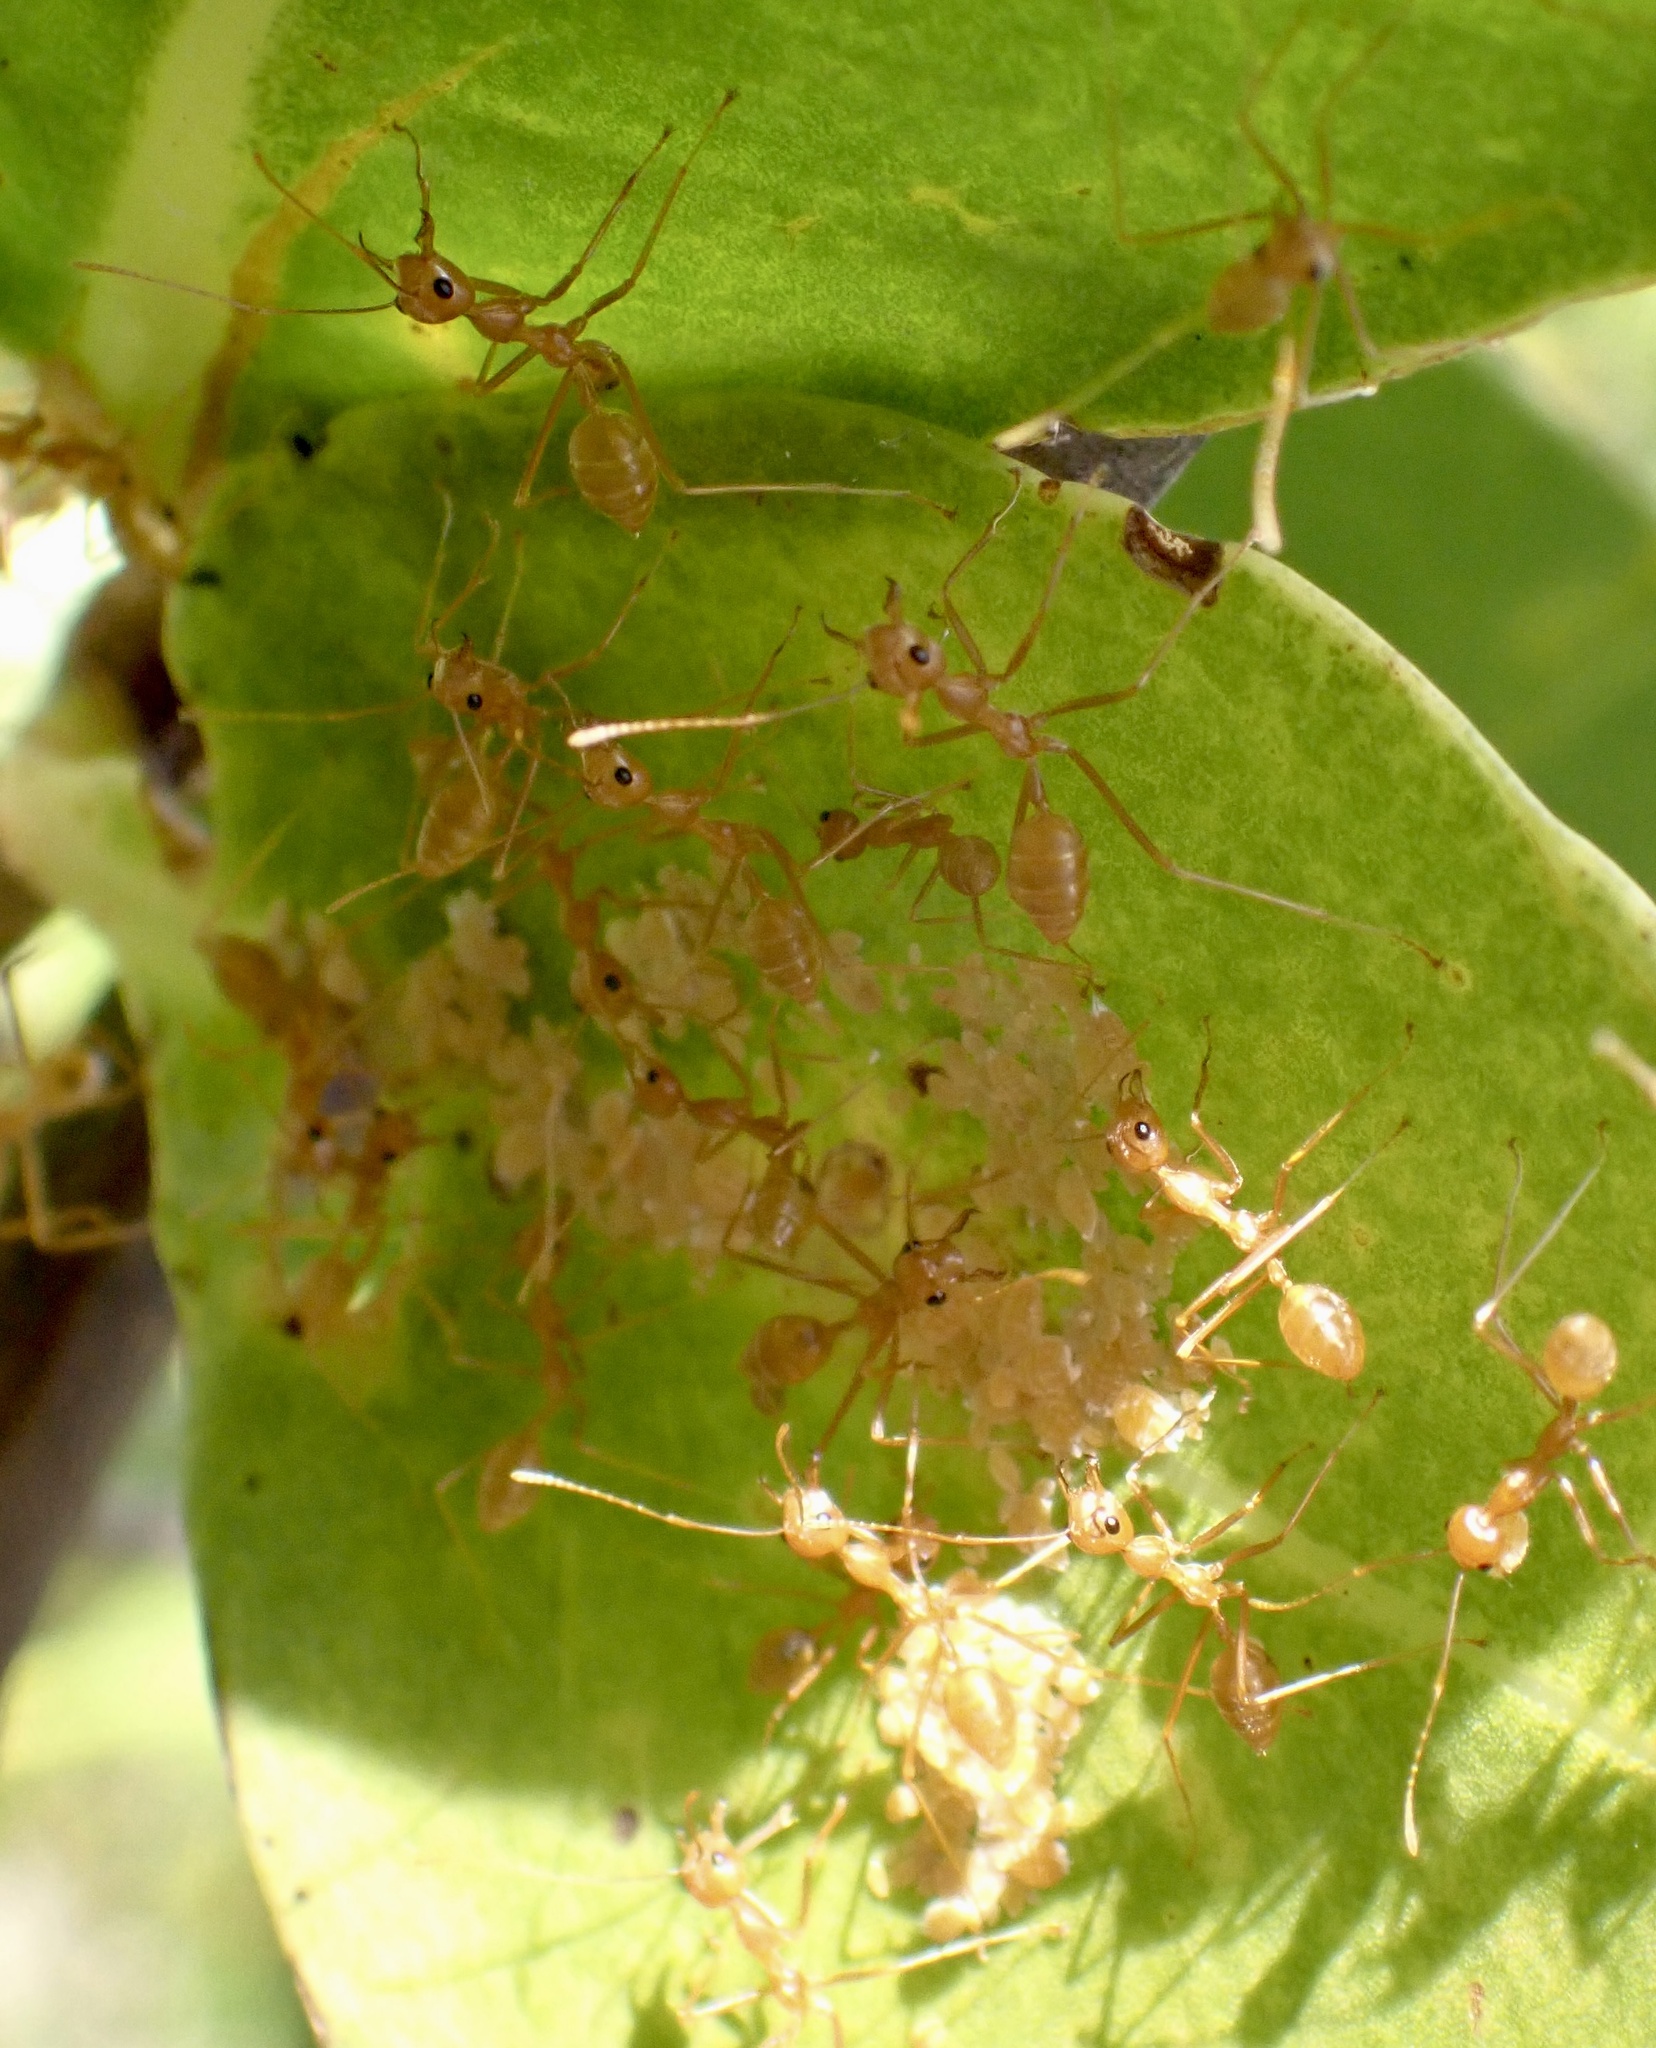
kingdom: Animalia
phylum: Arthropoda
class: Insecta
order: Hymenoptera
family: Formicidae
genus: Oecophylla
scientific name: Oecophylla smaragdina
